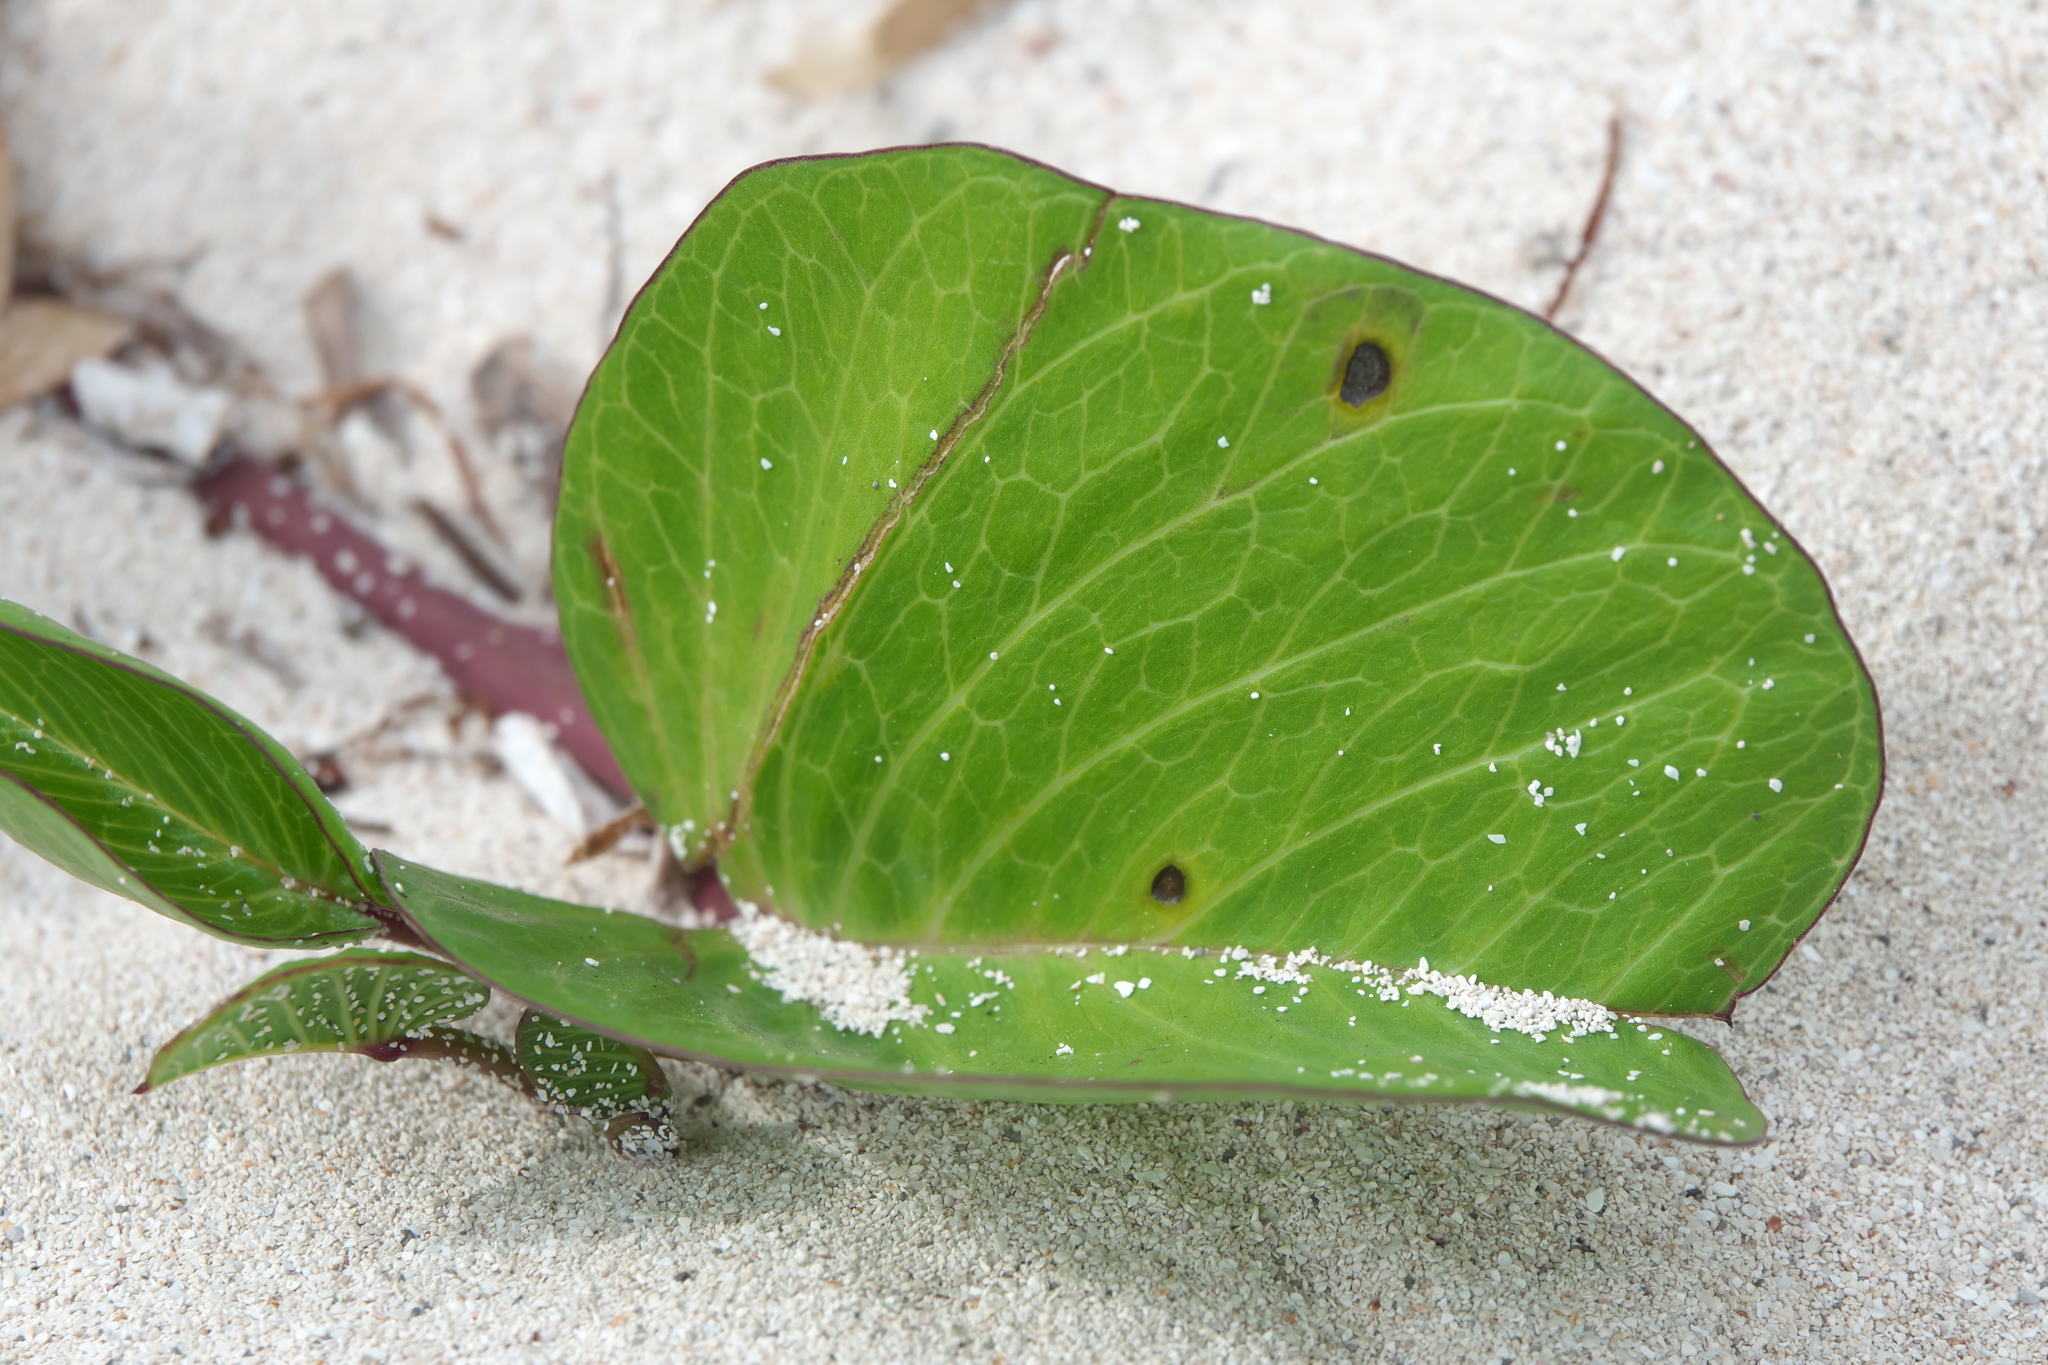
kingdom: Plantae
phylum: Tracheophyta
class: Magnoliopsida
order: Solanales
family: Convolvulaceae
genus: Ipomoea
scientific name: Ipomoea pes-caprae
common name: Beach morning glory
